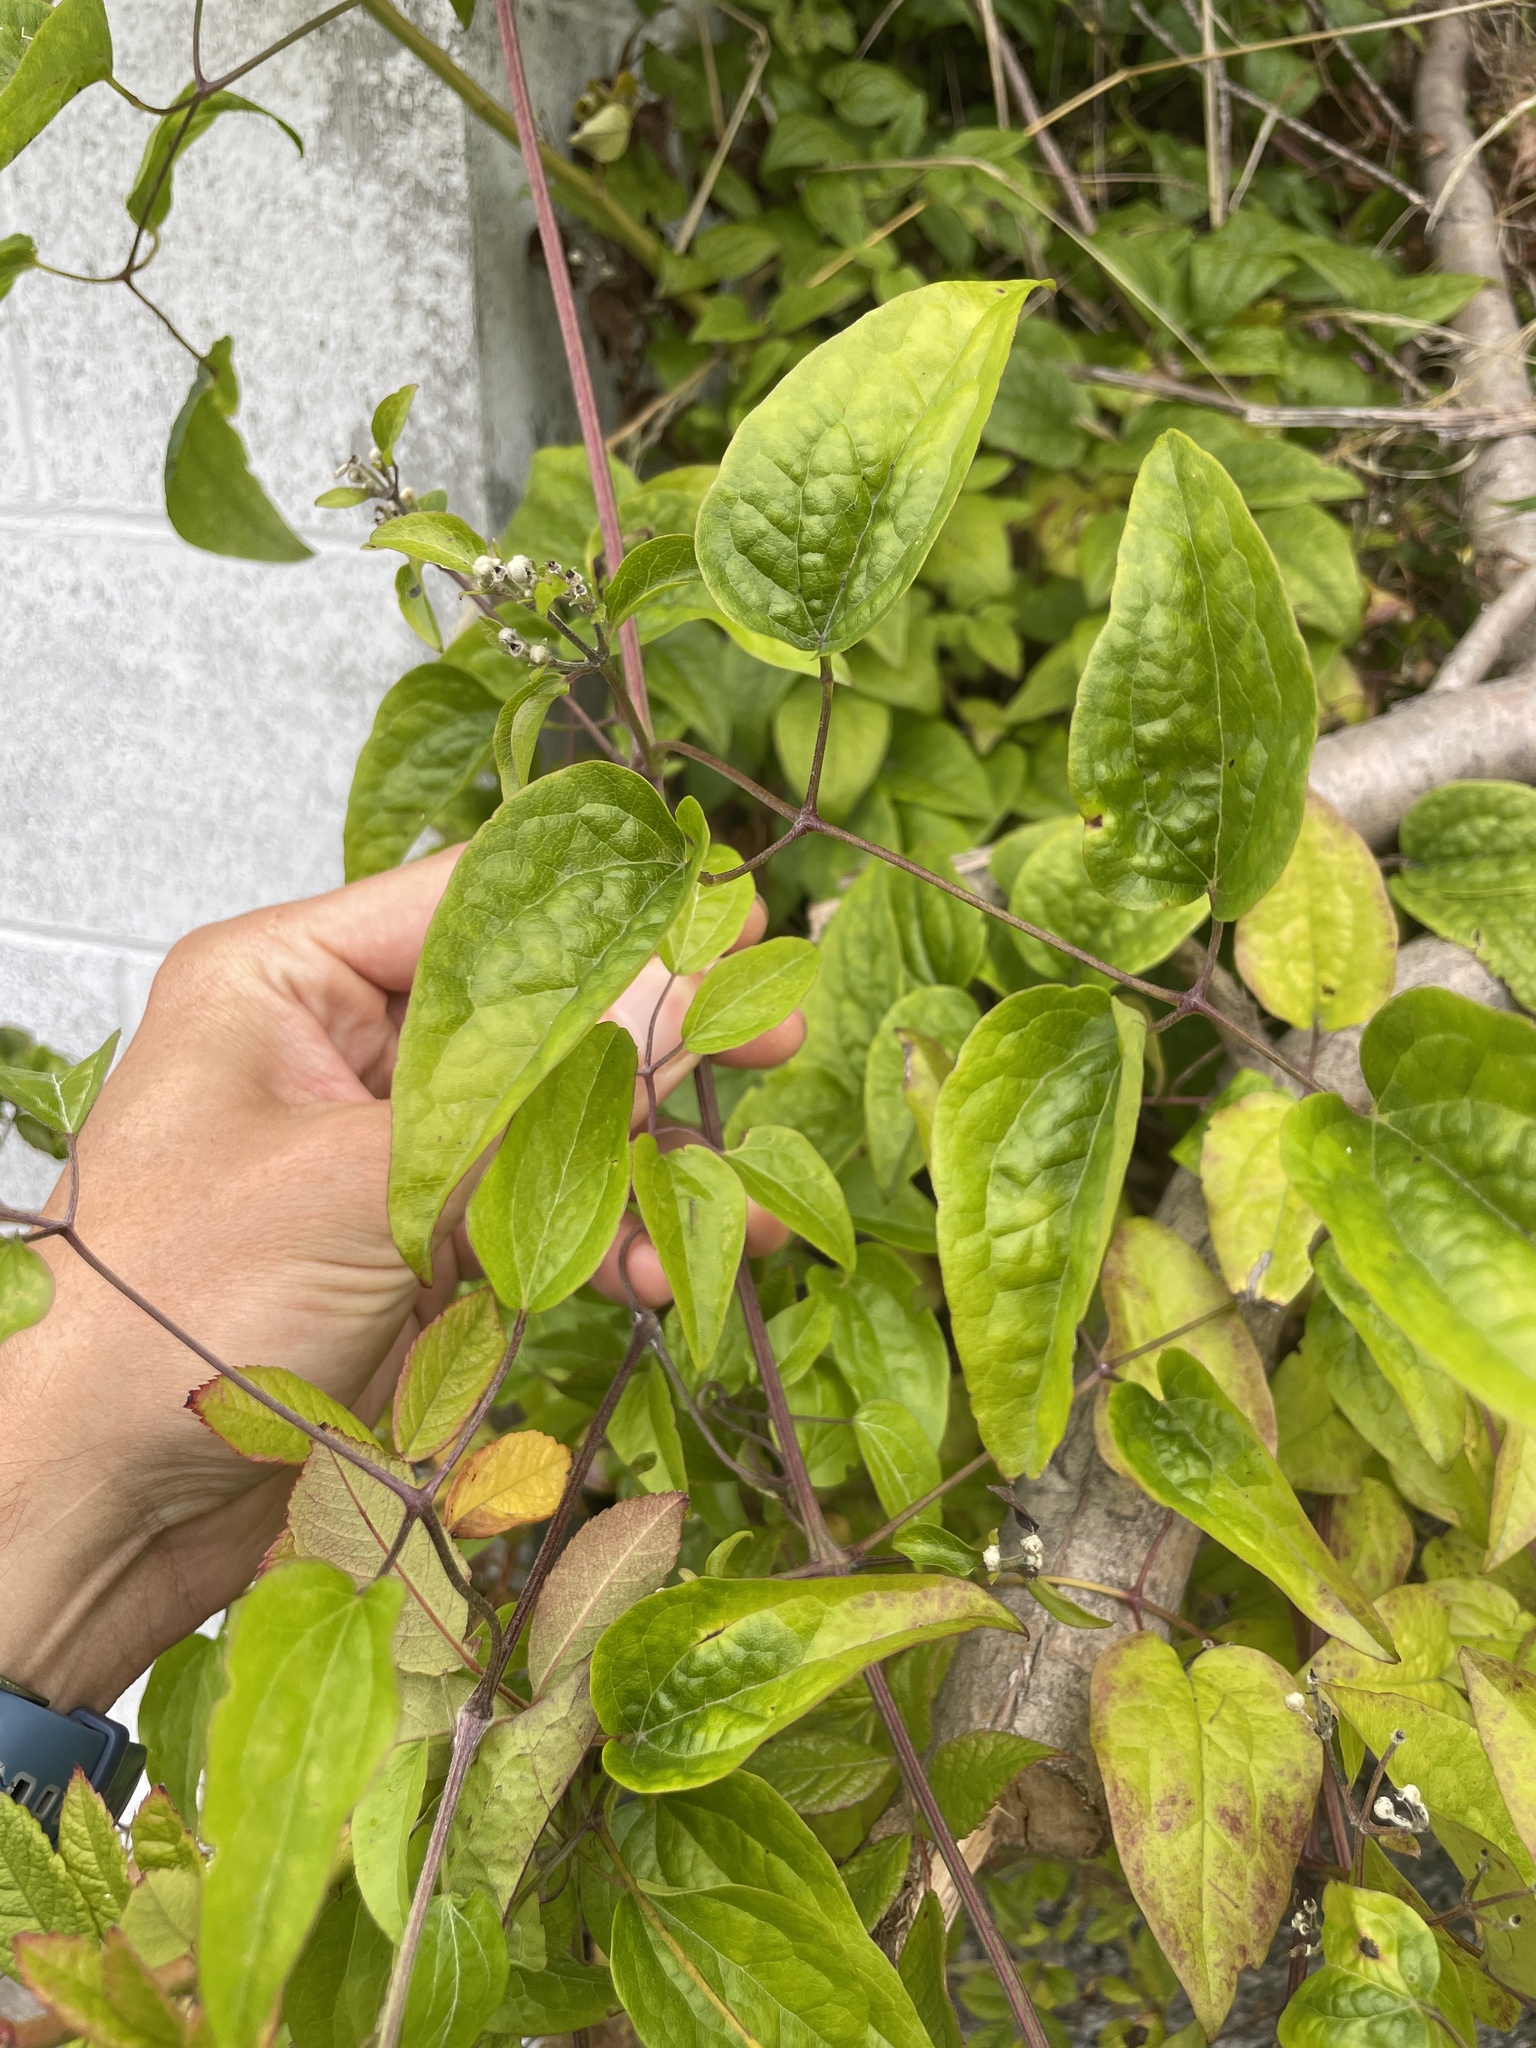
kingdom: Plantae
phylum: Tracheophyta
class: Magnoliopsida
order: Ranunculales
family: Ranunculaceae
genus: Clematis
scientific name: Clematis vitalba
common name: Evergreen clematis
